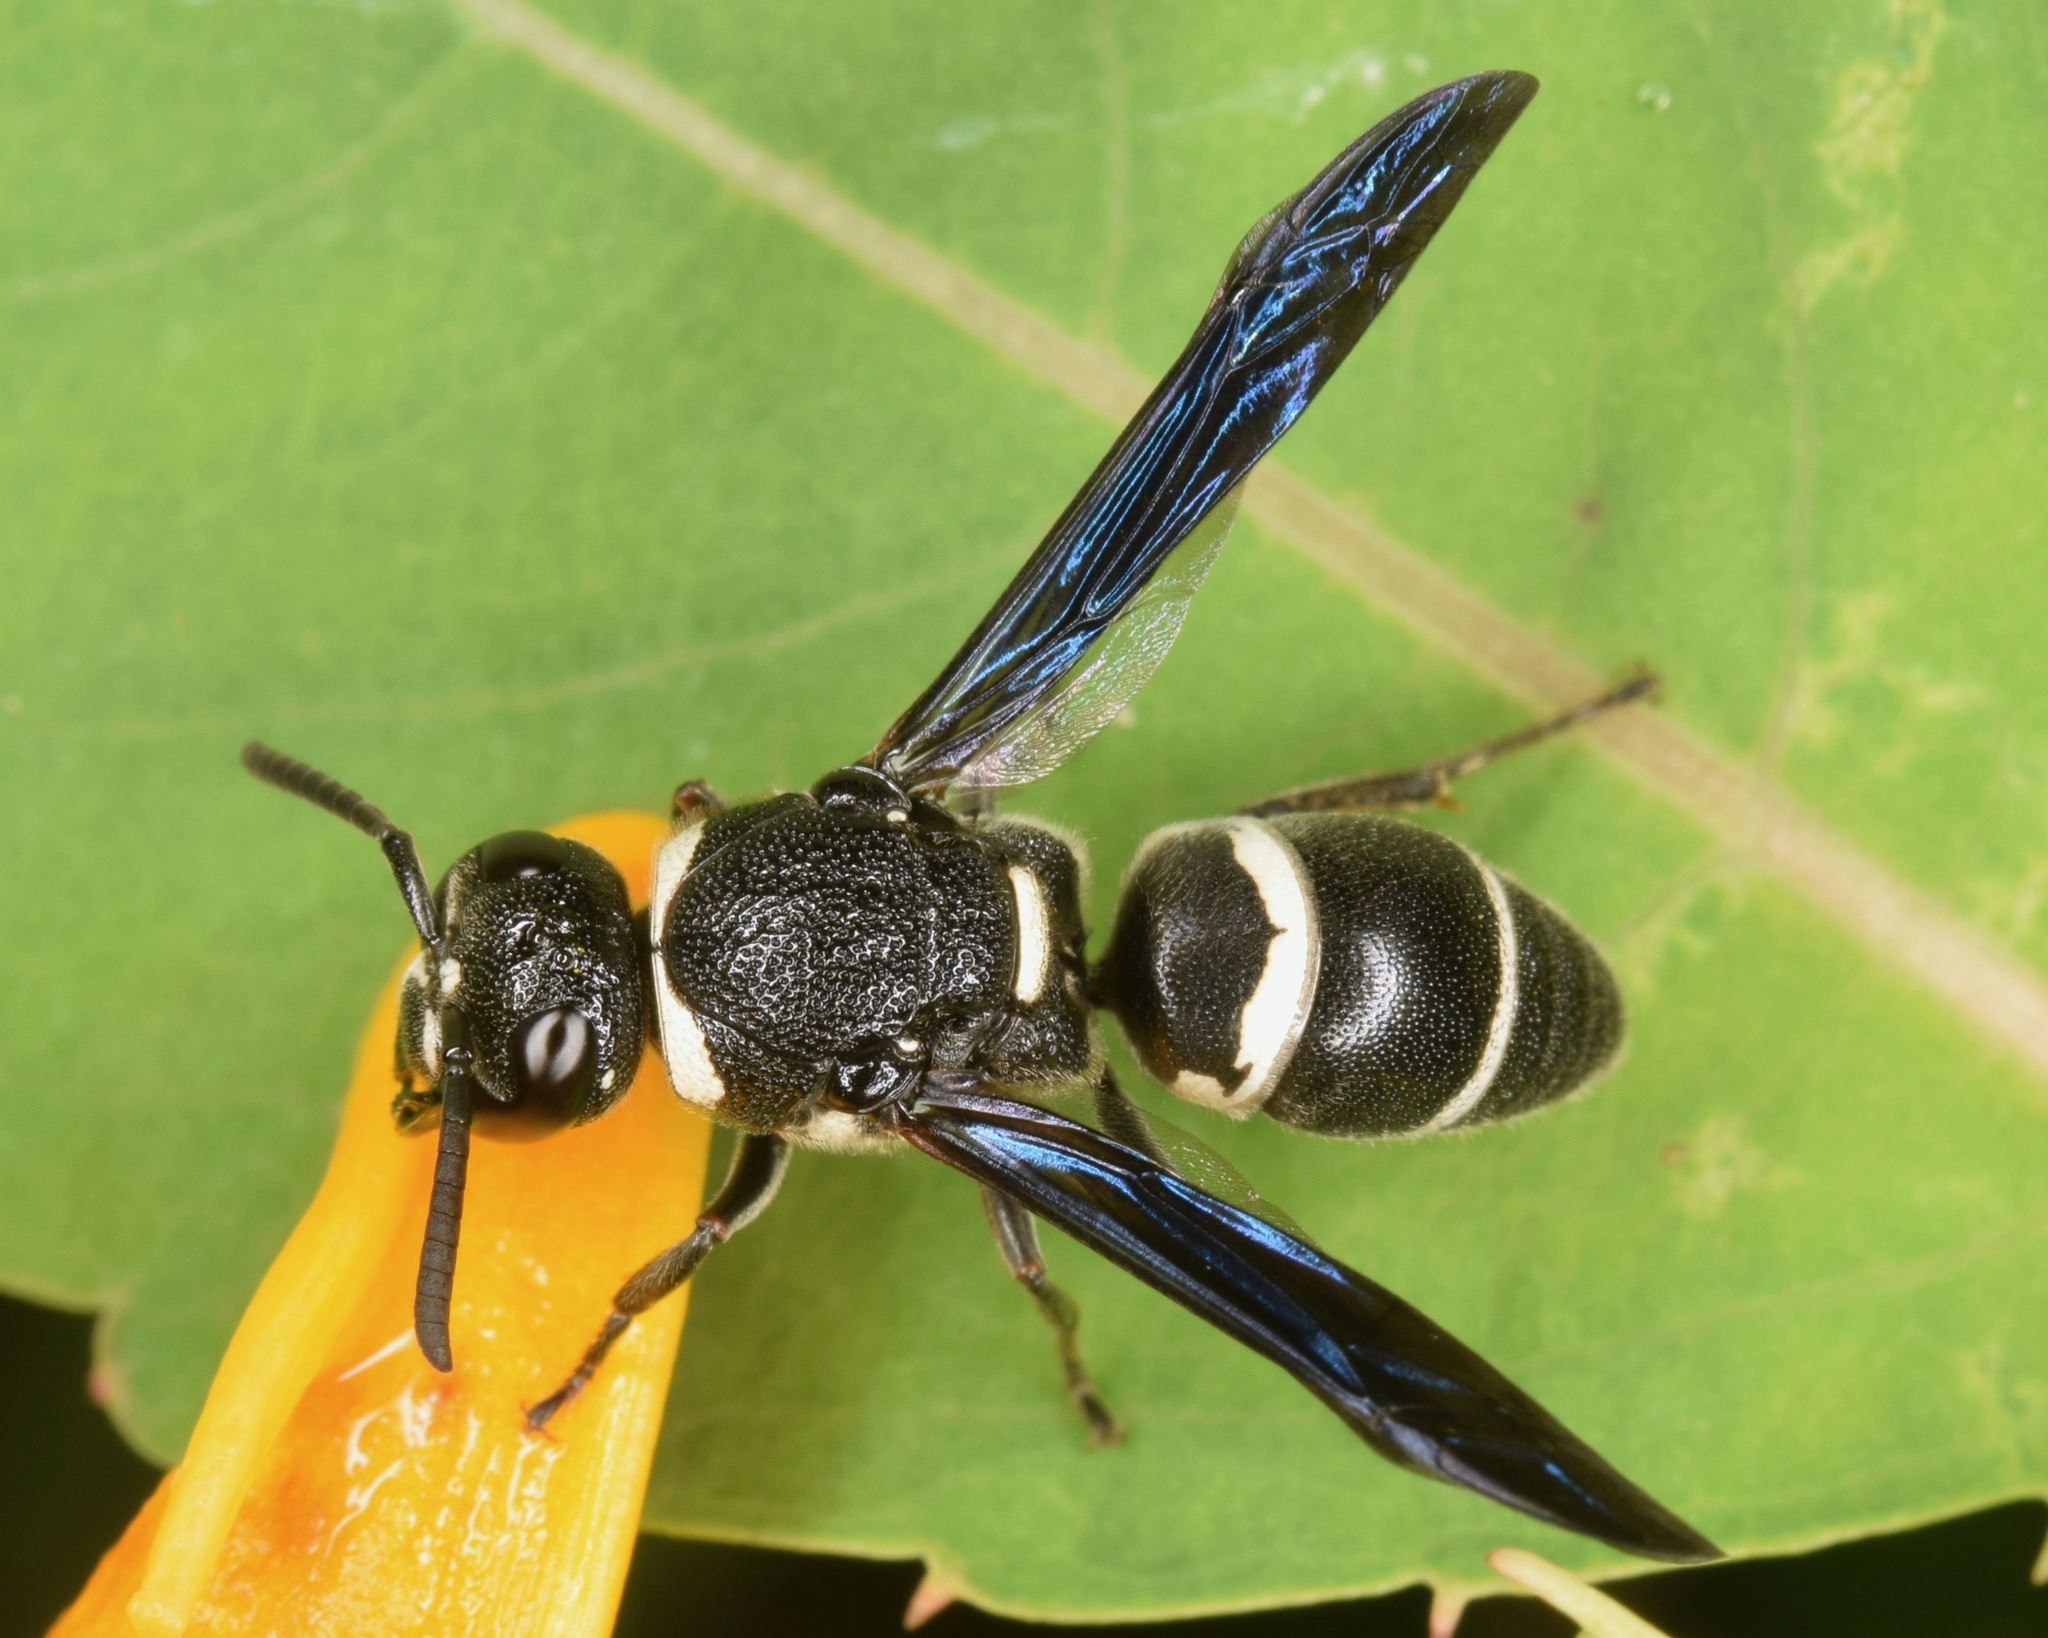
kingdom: Animalia
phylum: Arthropoda
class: Insecta
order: Hymenoptera
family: Eumenidae
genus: Euodynerus
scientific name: Euodynerus megaera
